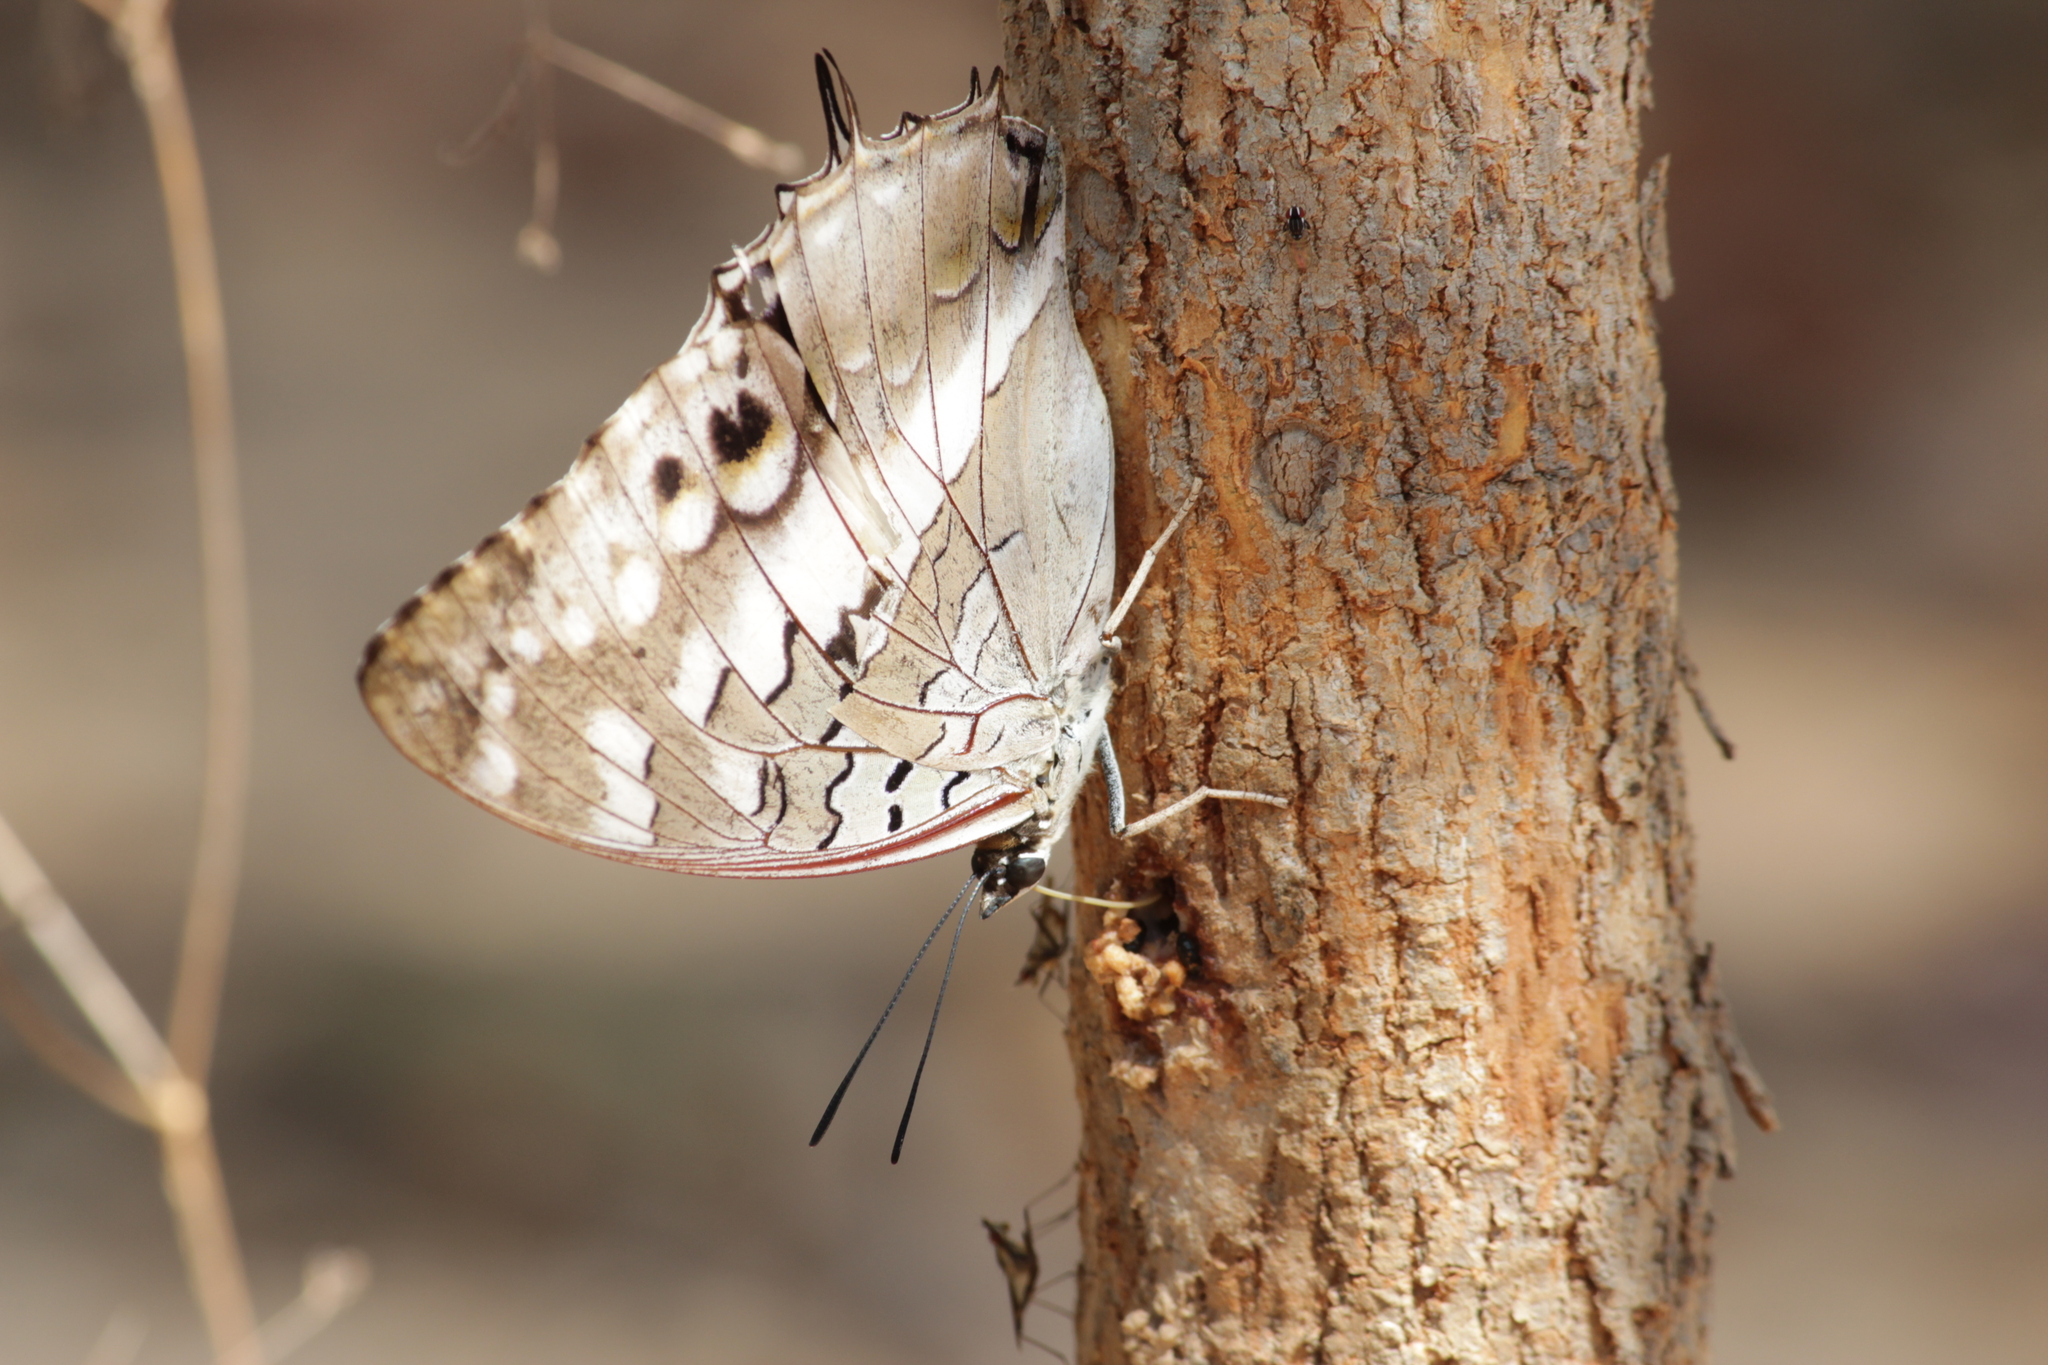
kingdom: Animalia
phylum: Arthropoda
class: Insecta
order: Lepidoptera
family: Nymphalidae
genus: Charaxes
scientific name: Charaxes ameliae
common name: Amelia’s blue-spotted charaxes
